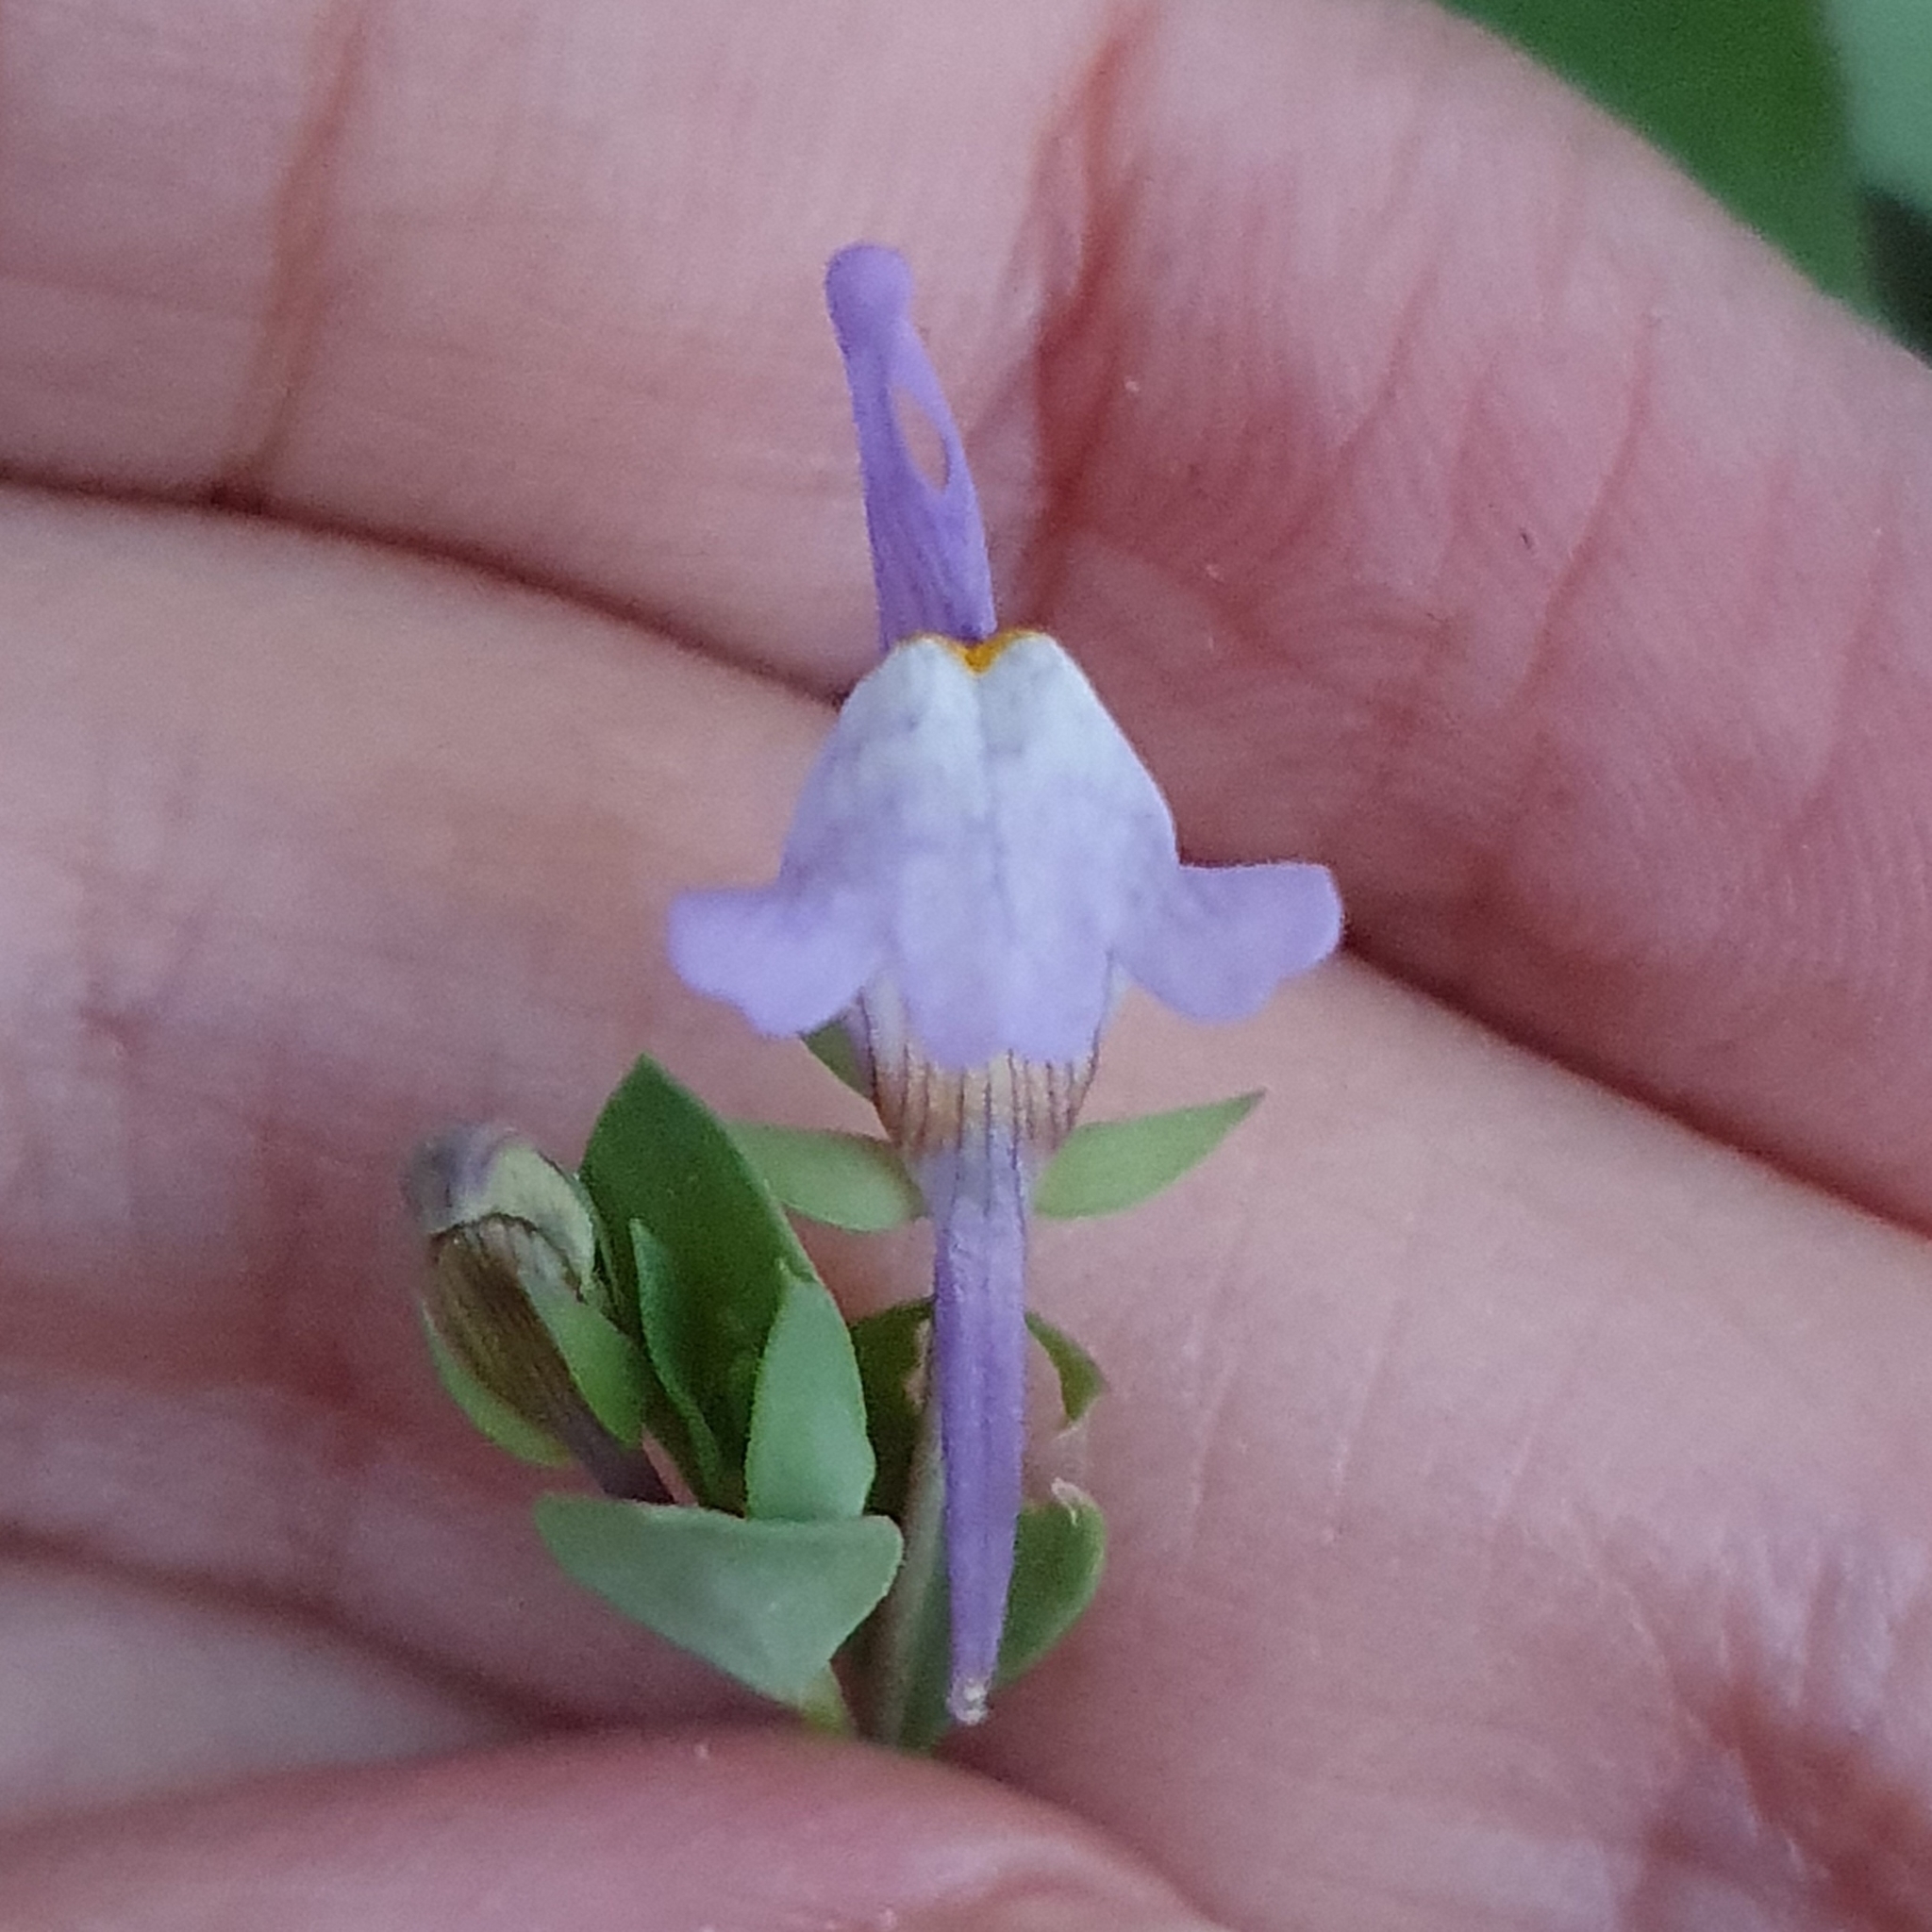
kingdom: Plantae
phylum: Tracheophyta
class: Magnoliopsida
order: Lamiales
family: Plantaginaceae
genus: Linaria
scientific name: Linaria reflexa
